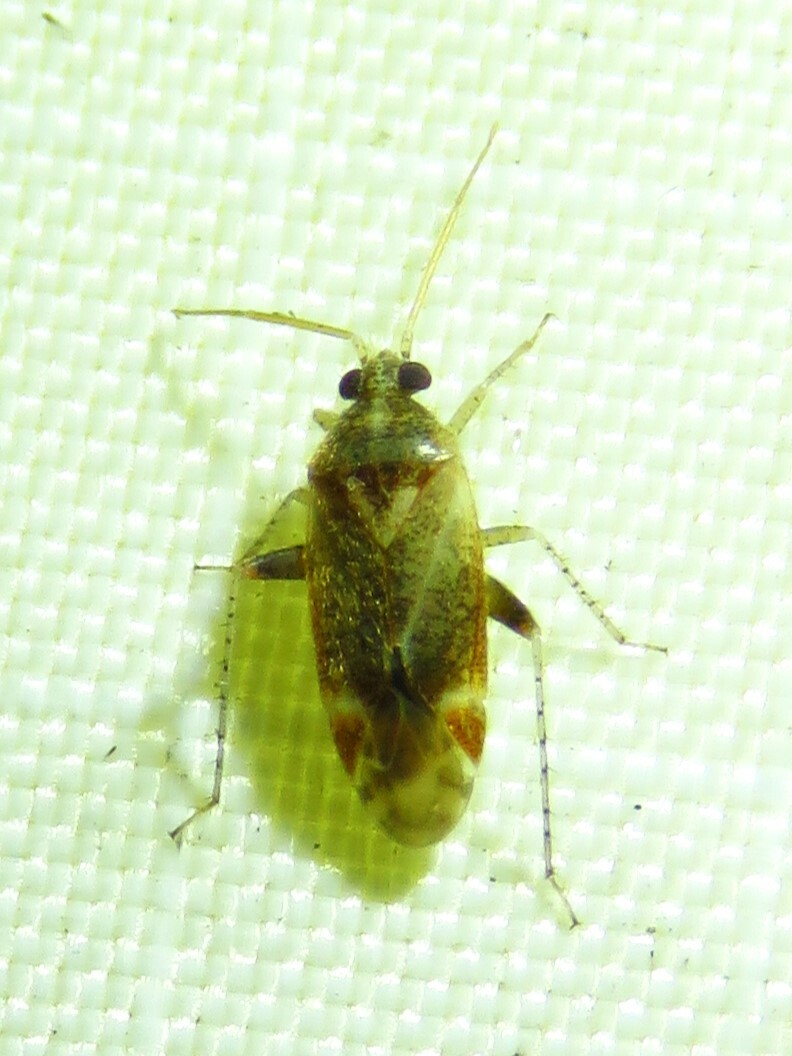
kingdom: Animalia
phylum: Arthropoda
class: Insecta
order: Hemiptera
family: Miridae
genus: Hamatophylus
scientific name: Hamatophylus guttulosus
